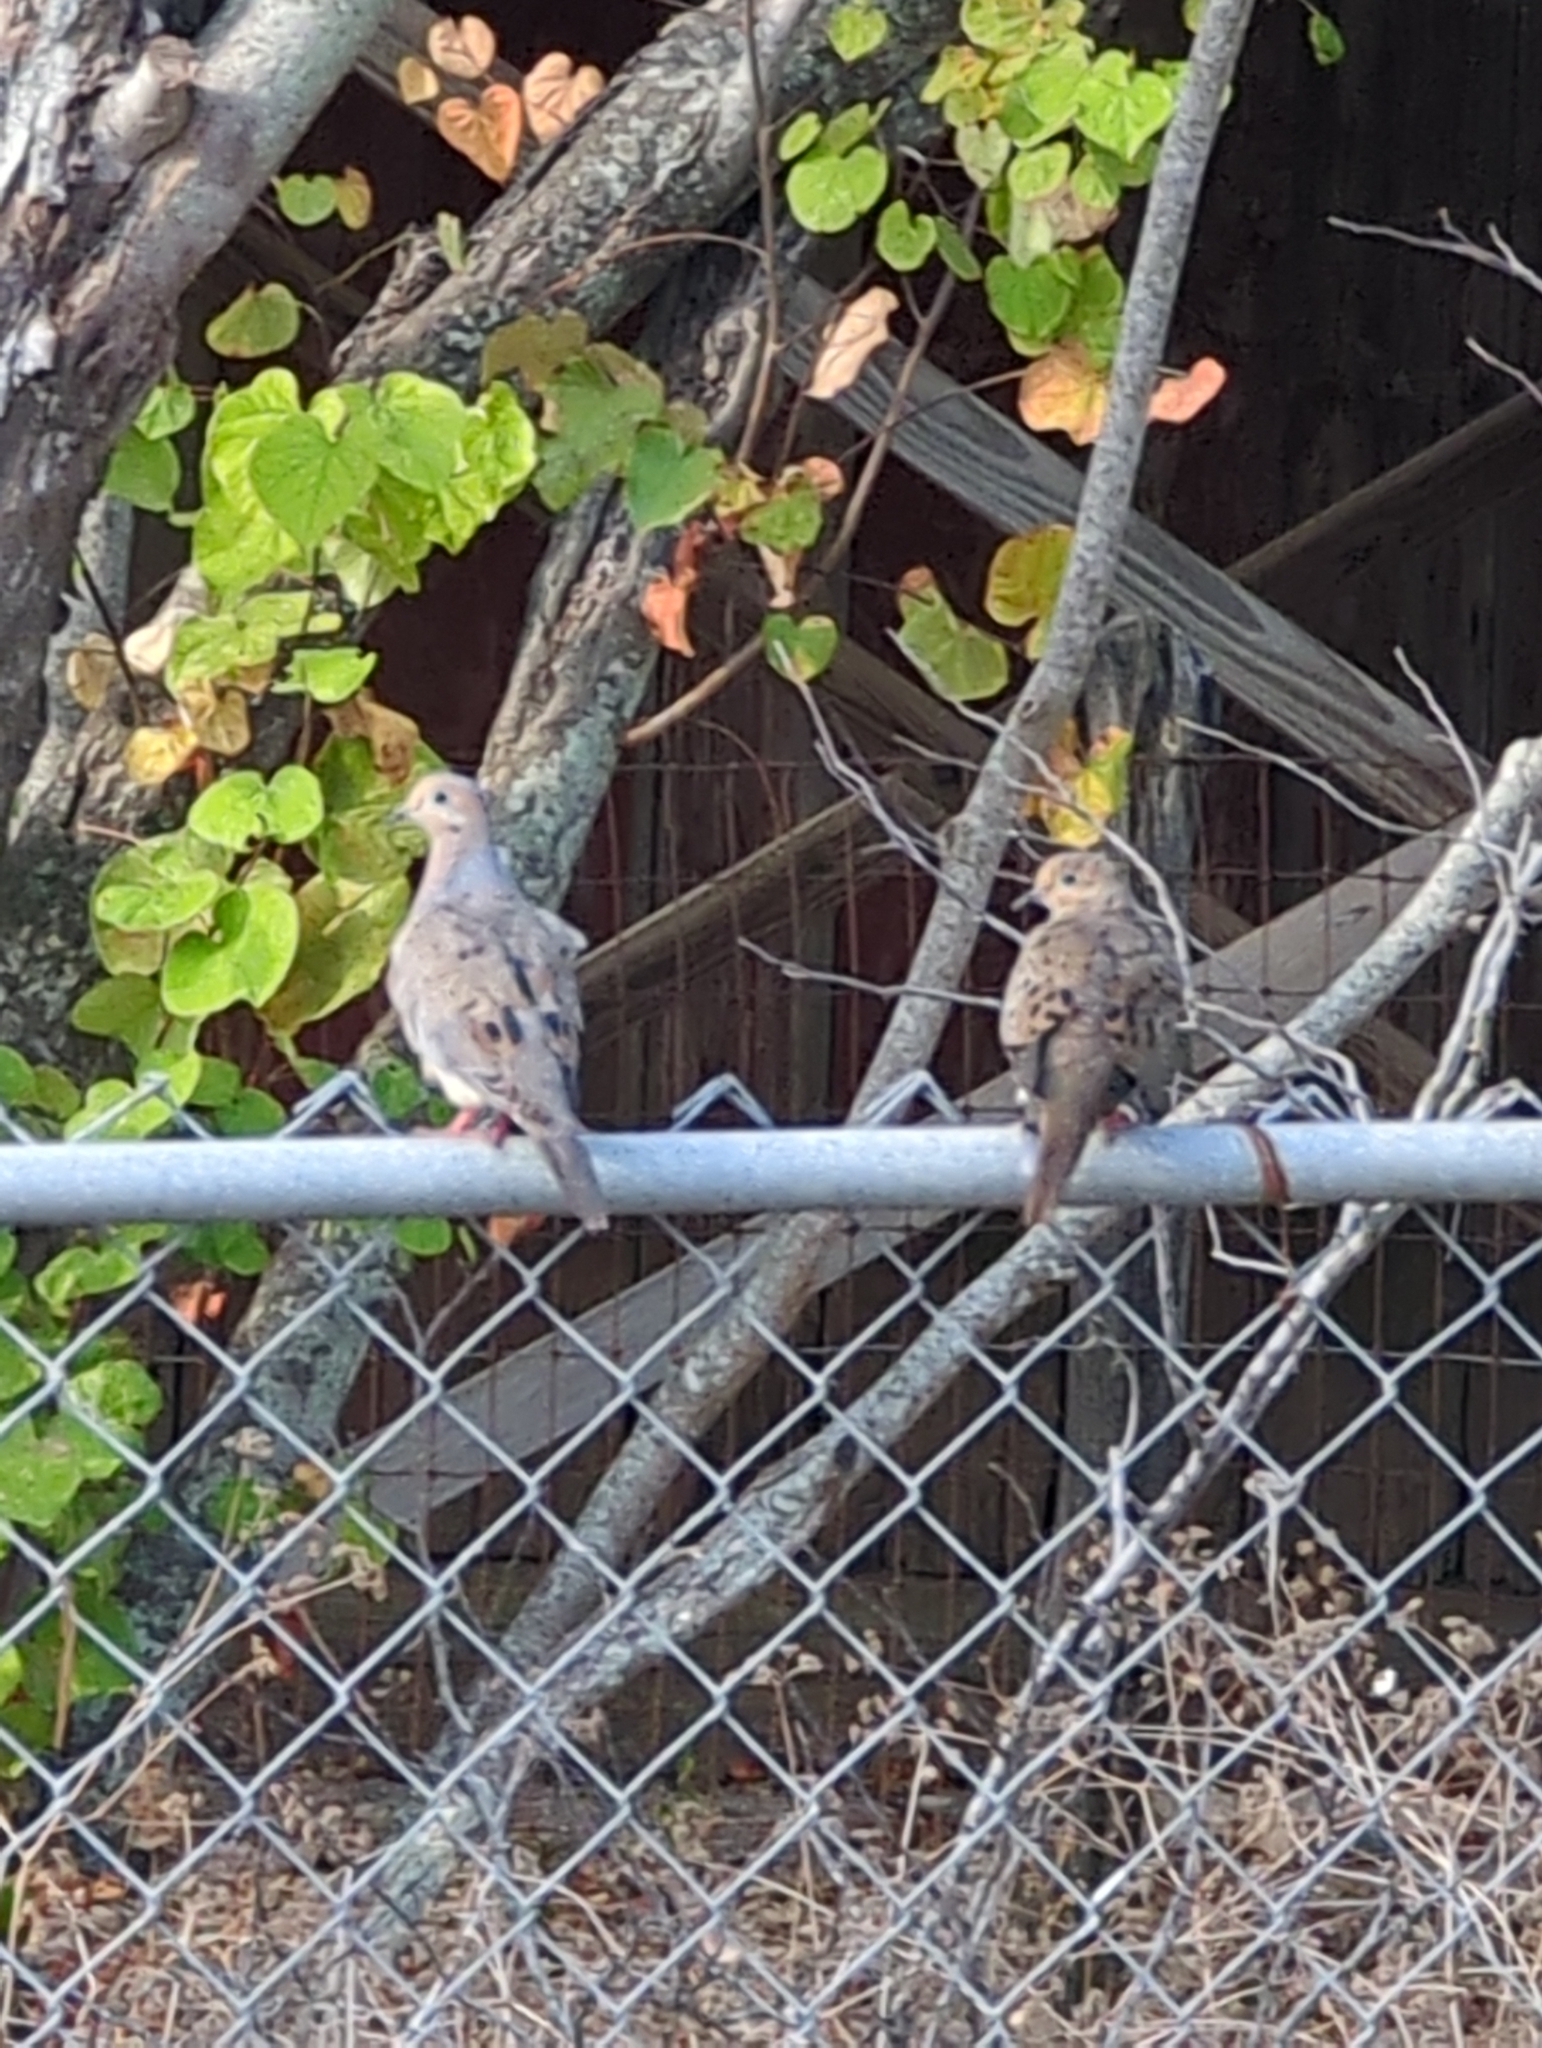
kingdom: Animalia
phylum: Chordata
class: Aves
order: Columbiformes
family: Columbidae
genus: Zenaida
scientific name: Zenaida macroura
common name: Mourning dove
